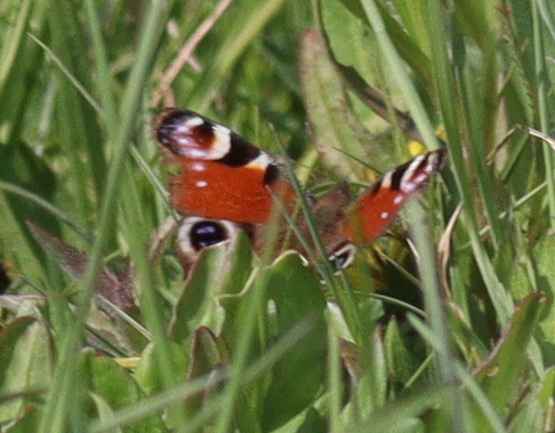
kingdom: Animalia
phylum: Arthropoda
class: Insecta
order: Lepidoptera
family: Nymphalidae
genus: Aglais
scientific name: Aglais io
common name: Peacock
